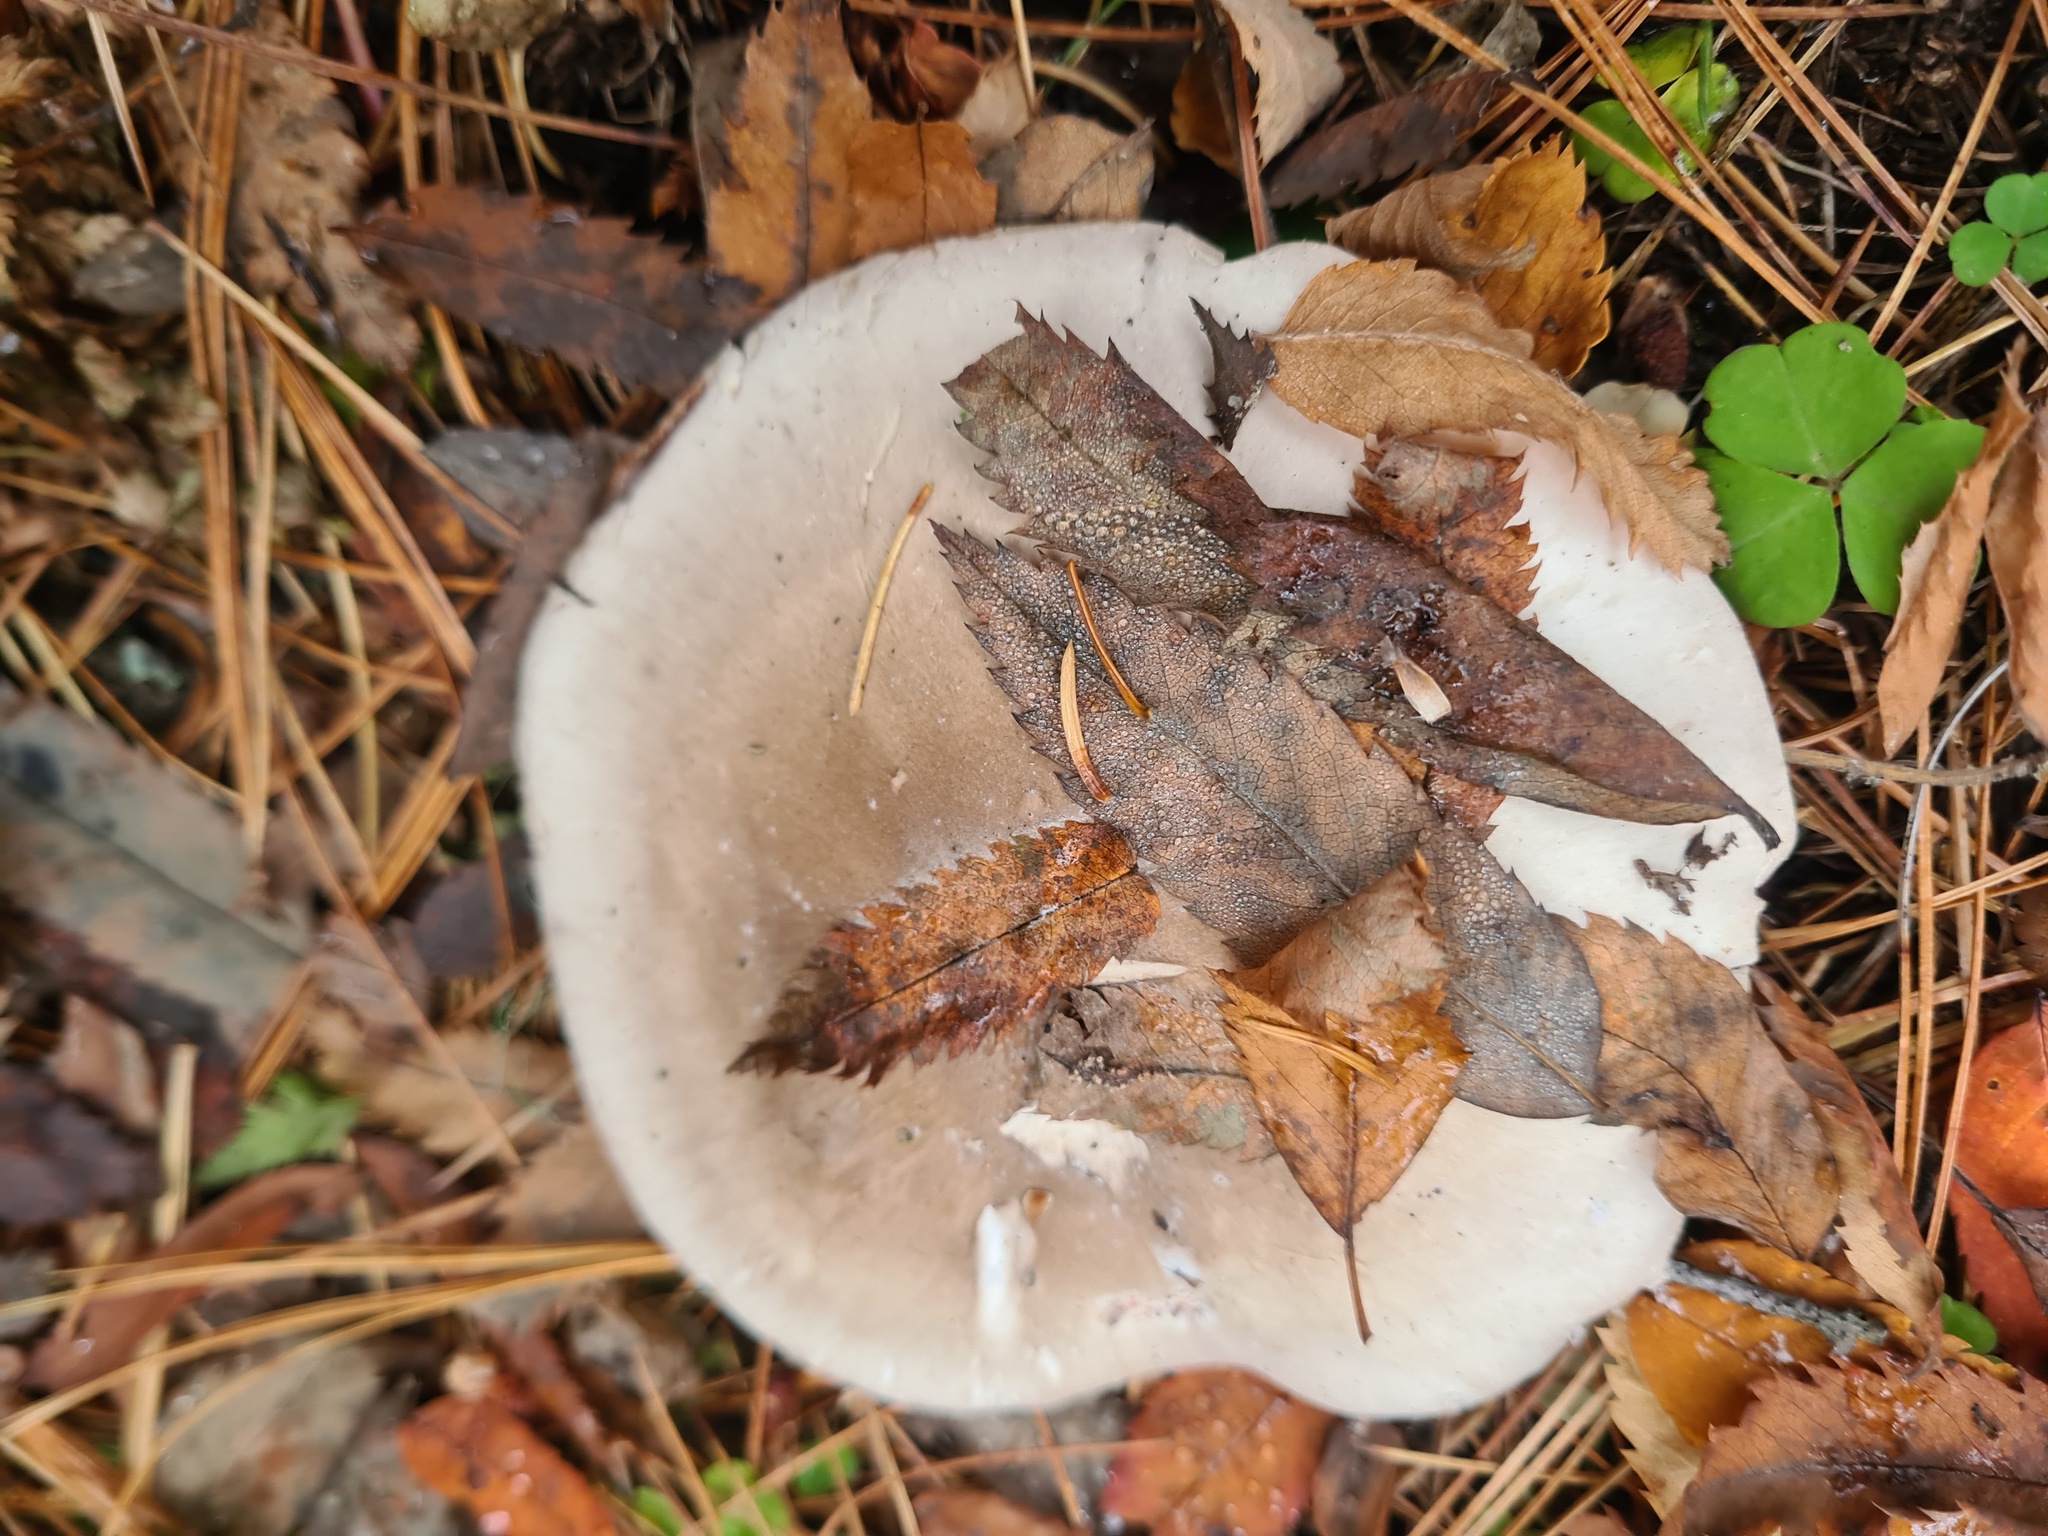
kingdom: Fungi
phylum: Basidiomycota
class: Agaricomycetes
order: Agaricales
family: Tricholomataceae
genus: Clitocybe
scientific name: Clitocybe nebularis
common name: Clouded agaric
